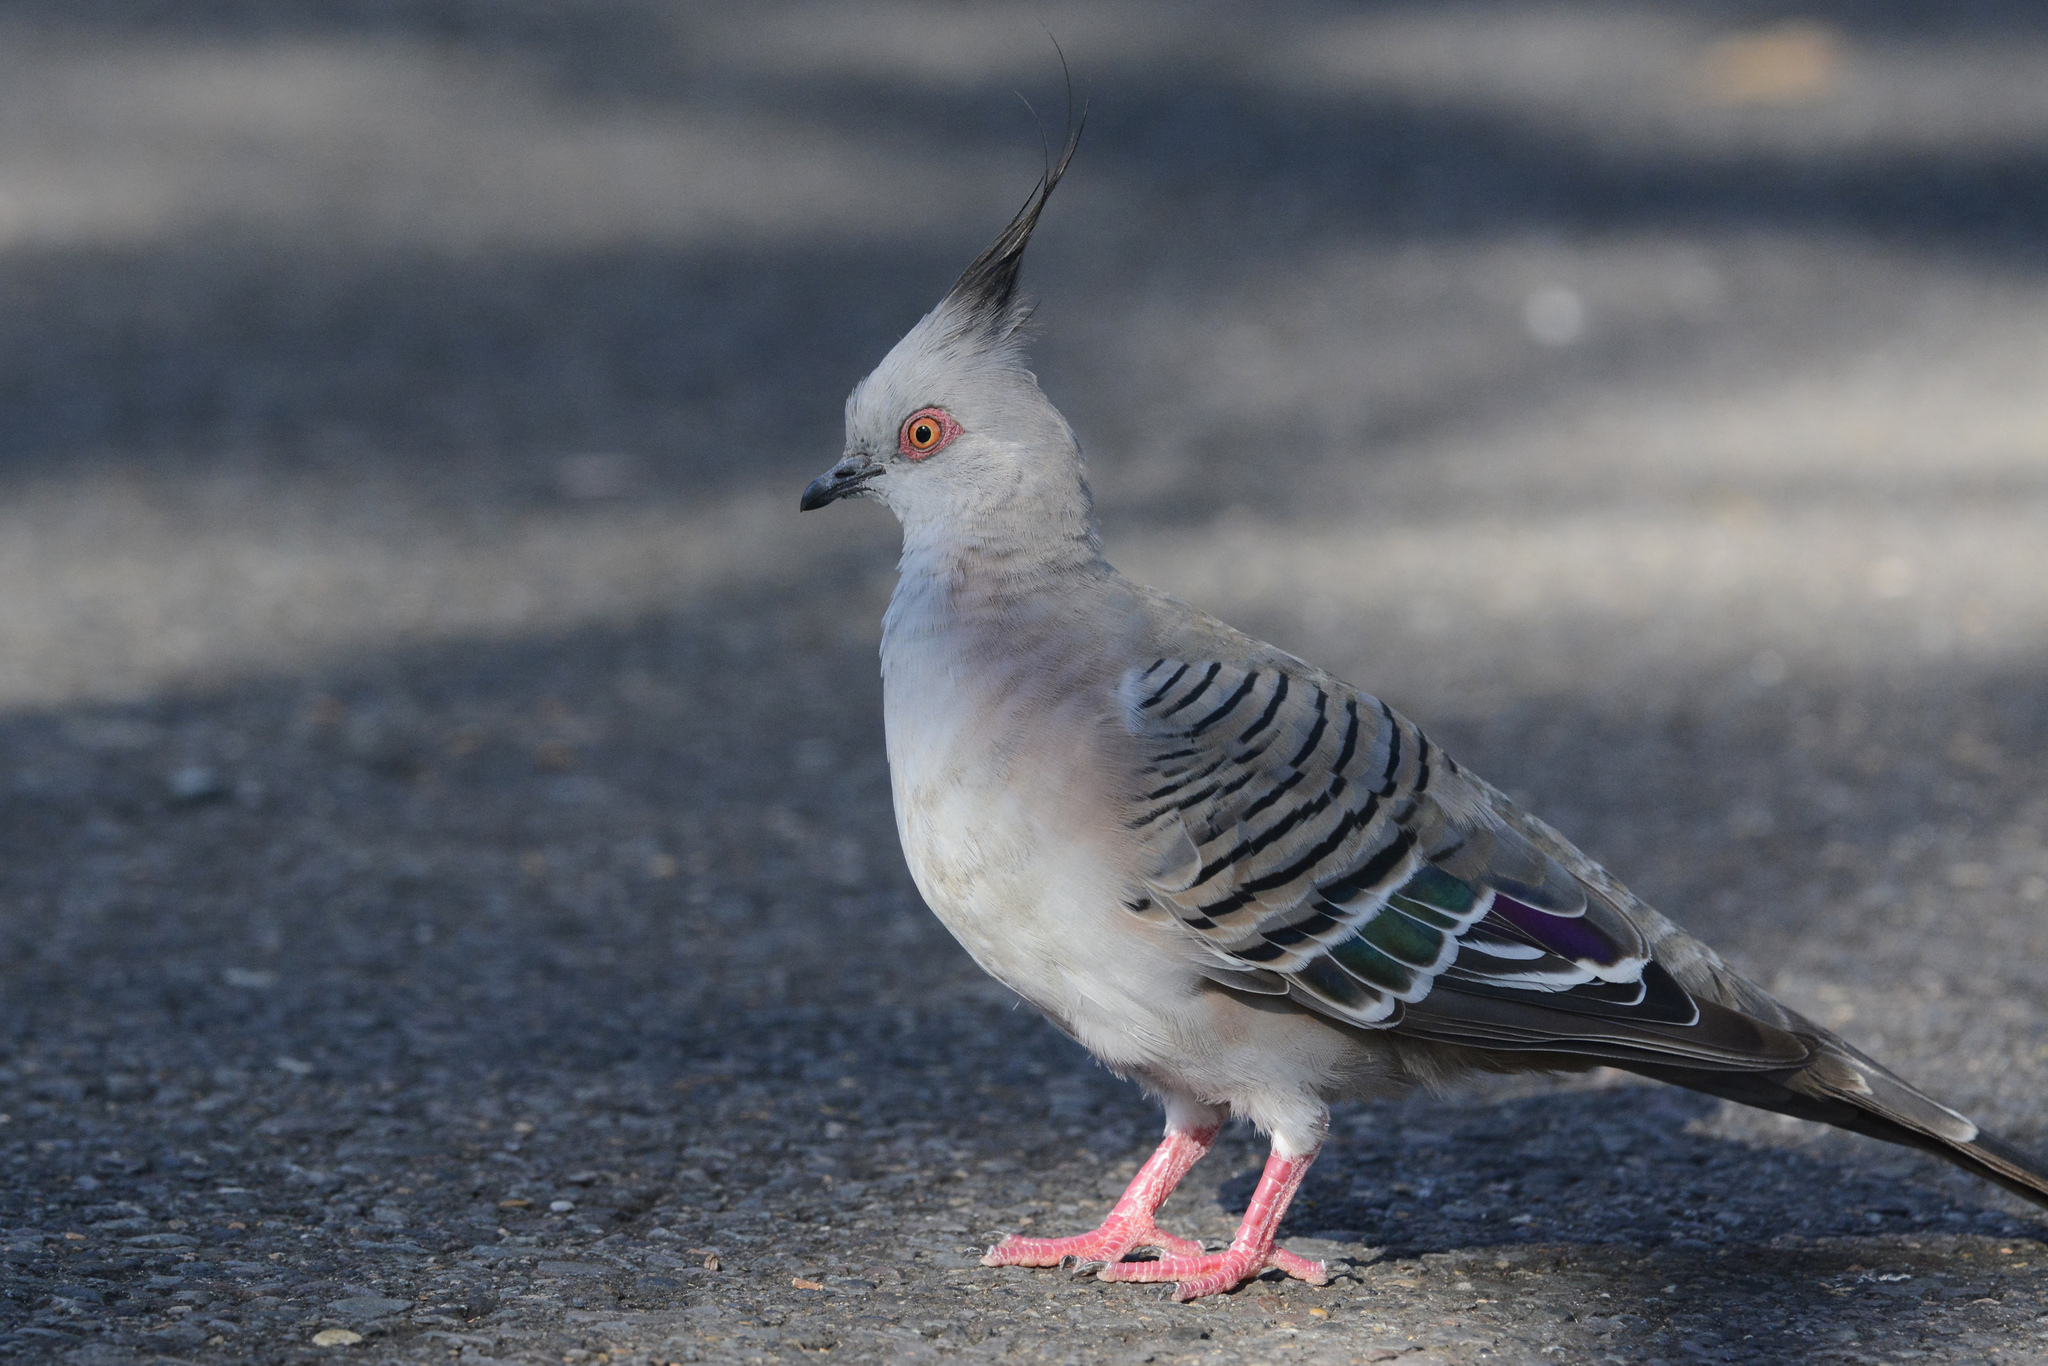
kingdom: Animalia
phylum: Chordata
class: Aves
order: Columbiformes
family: Columbidae
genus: Ocyphaps
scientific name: Ocyphaps lophotes
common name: Crested pigeon
